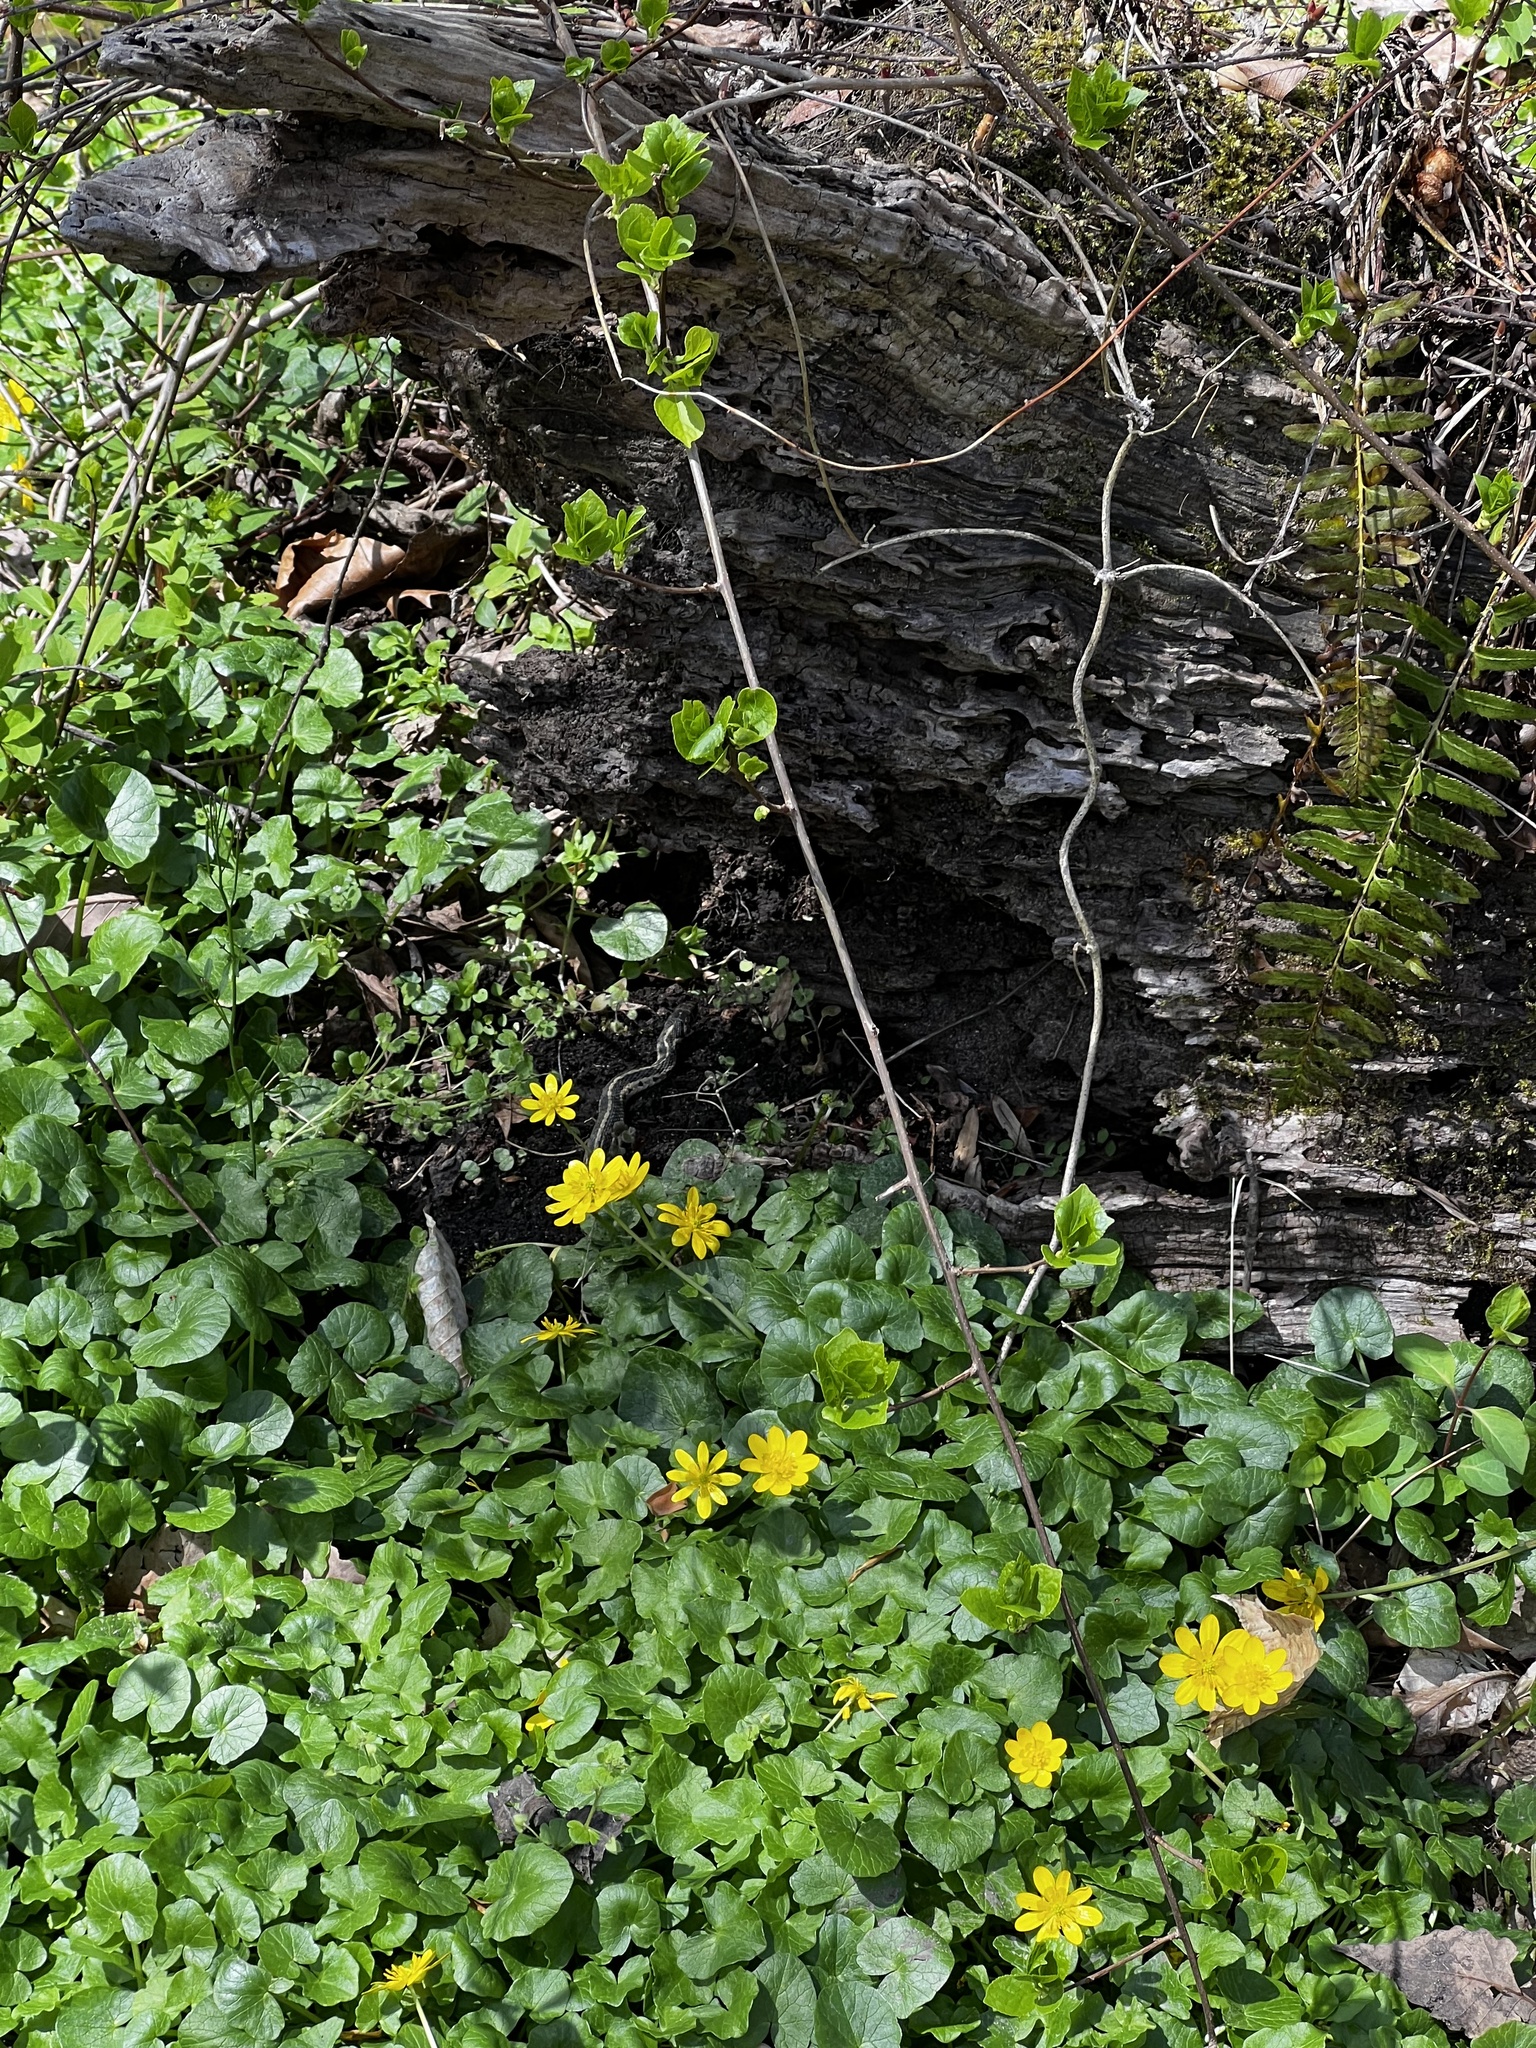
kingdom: Animalia
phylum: Chordata
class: Squamata
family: Colubridae
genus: Thamnophis
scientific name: Thamnophis sirtalis
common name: Common garter snake
